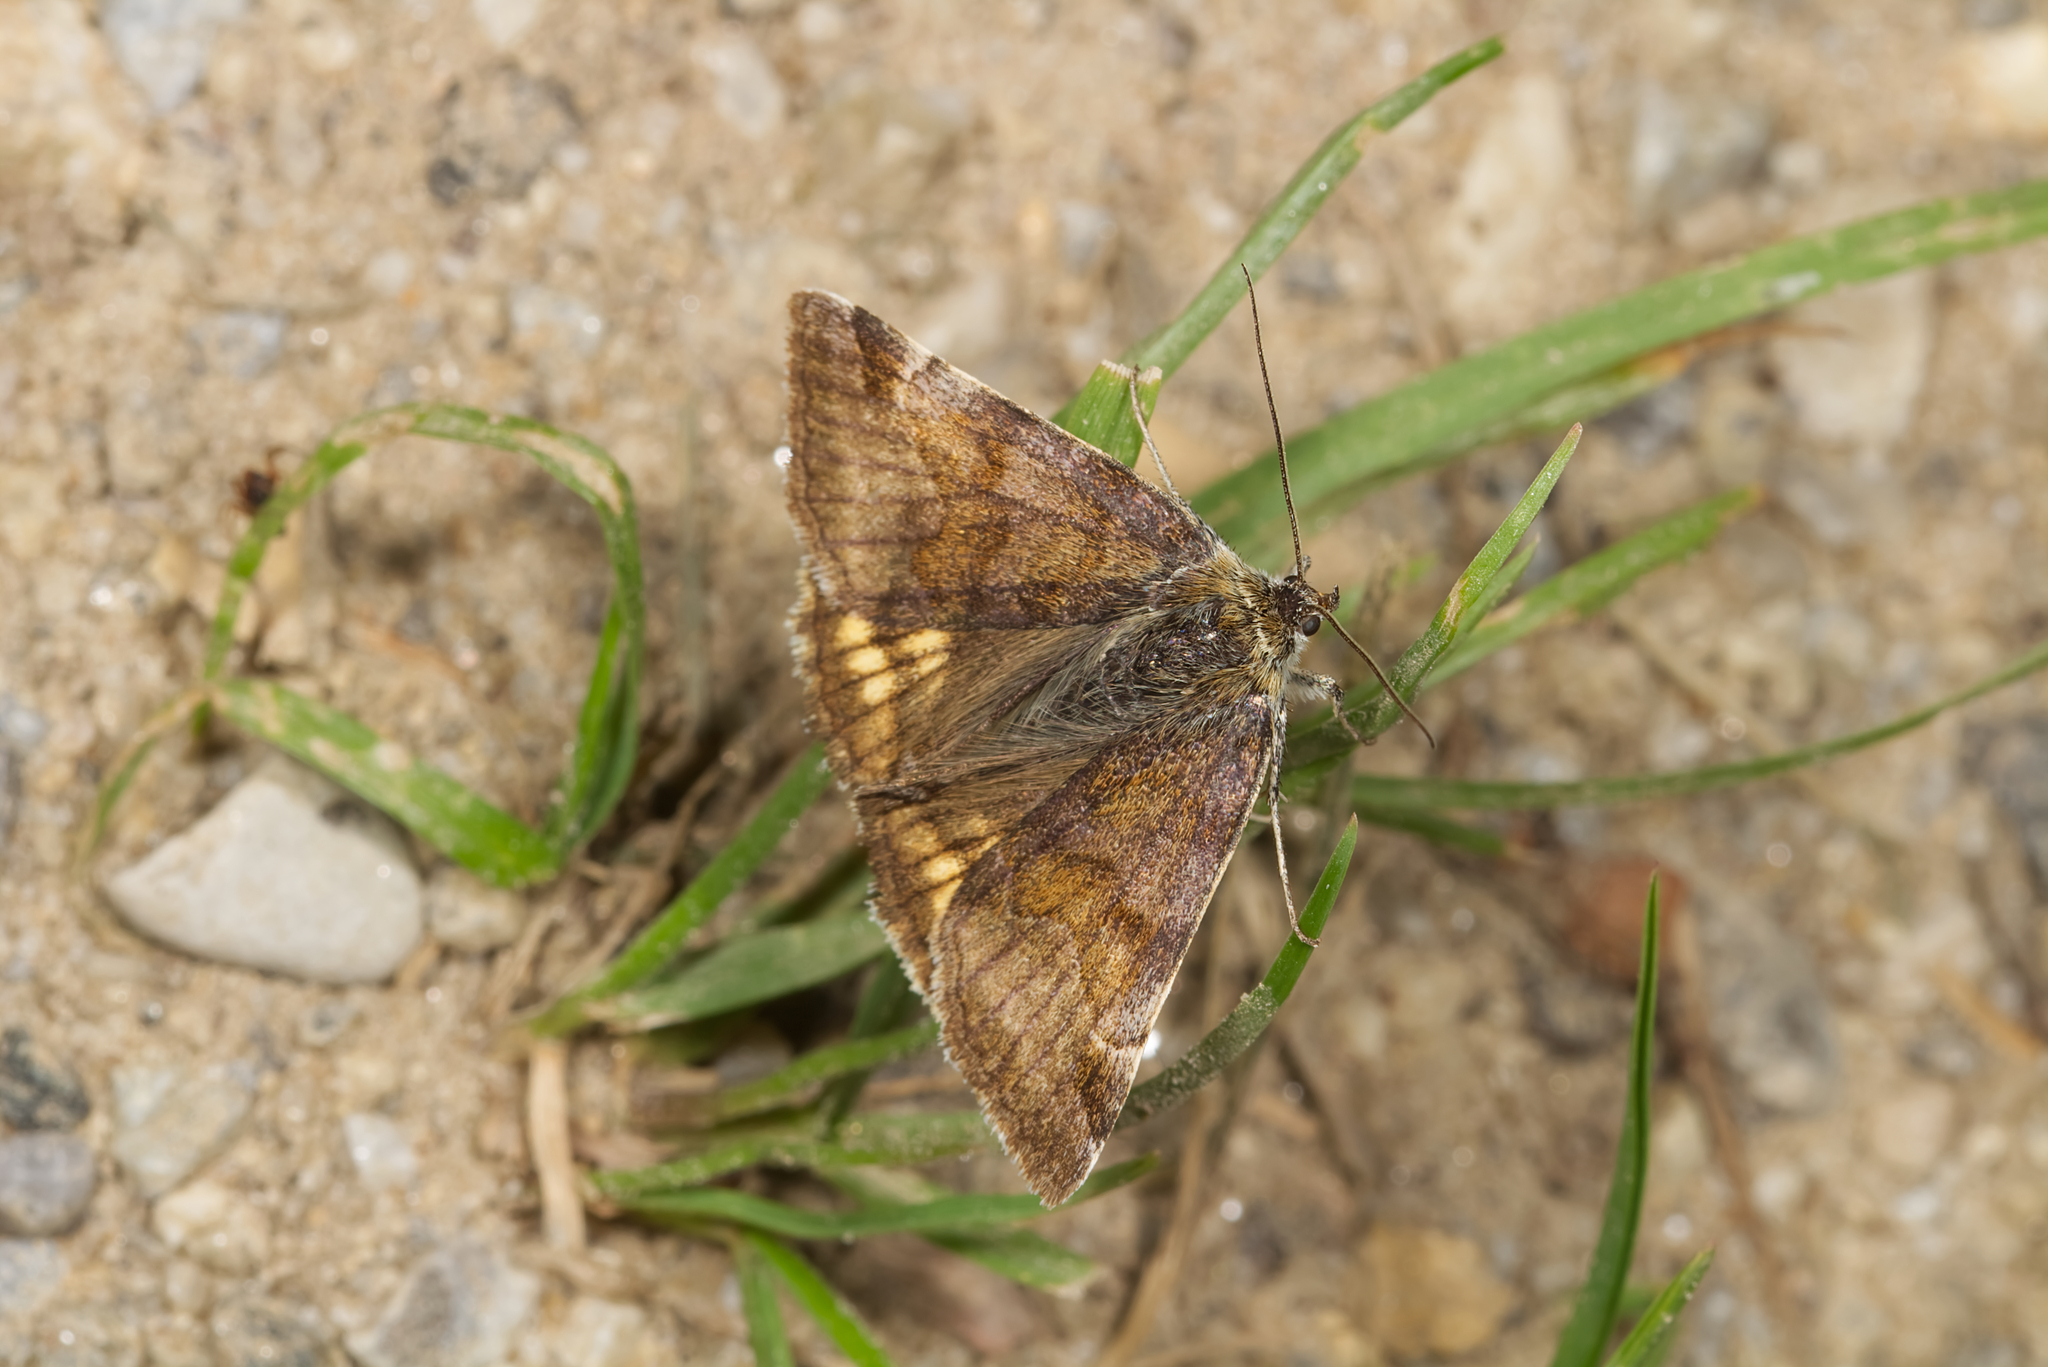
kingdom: Animalia
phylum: Arthropoda
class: Insecta
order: Lepidoptera
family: Erebidae
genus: Euclidia
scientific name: Euclidia glyphica
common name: Burnet companion
